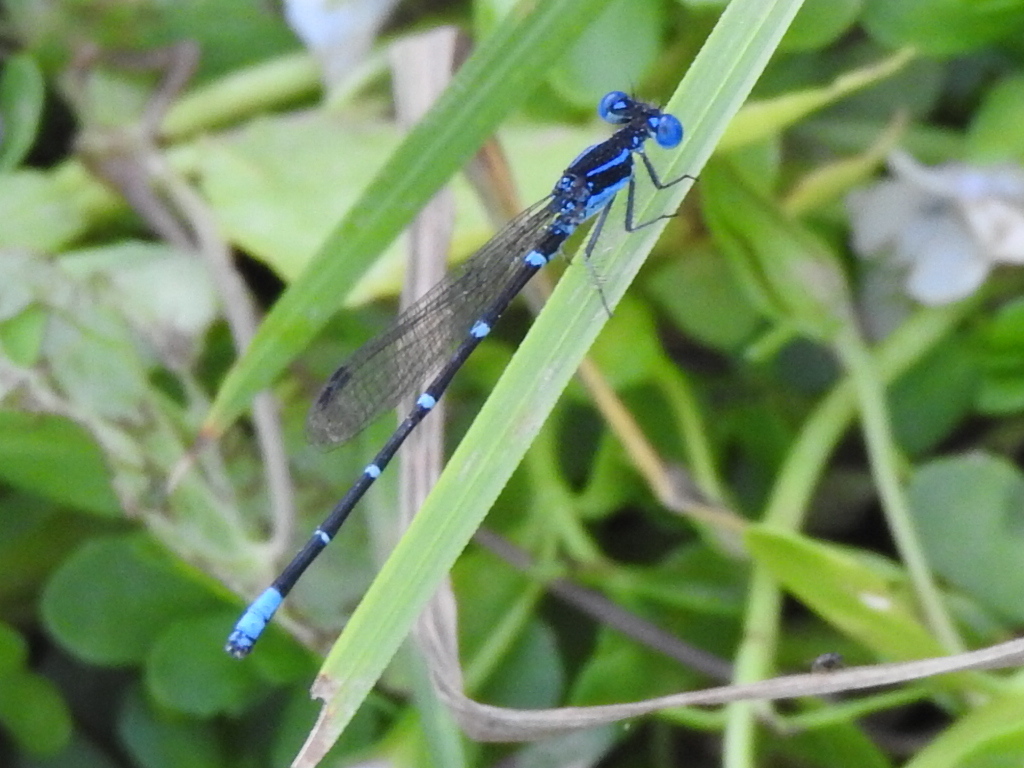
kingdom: Animalia
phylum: Arthropoda
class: Insecta
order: Odonata
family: Coenagrionidae
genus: Argia
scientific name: Argia sedula
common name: Blue-ringed dancer
